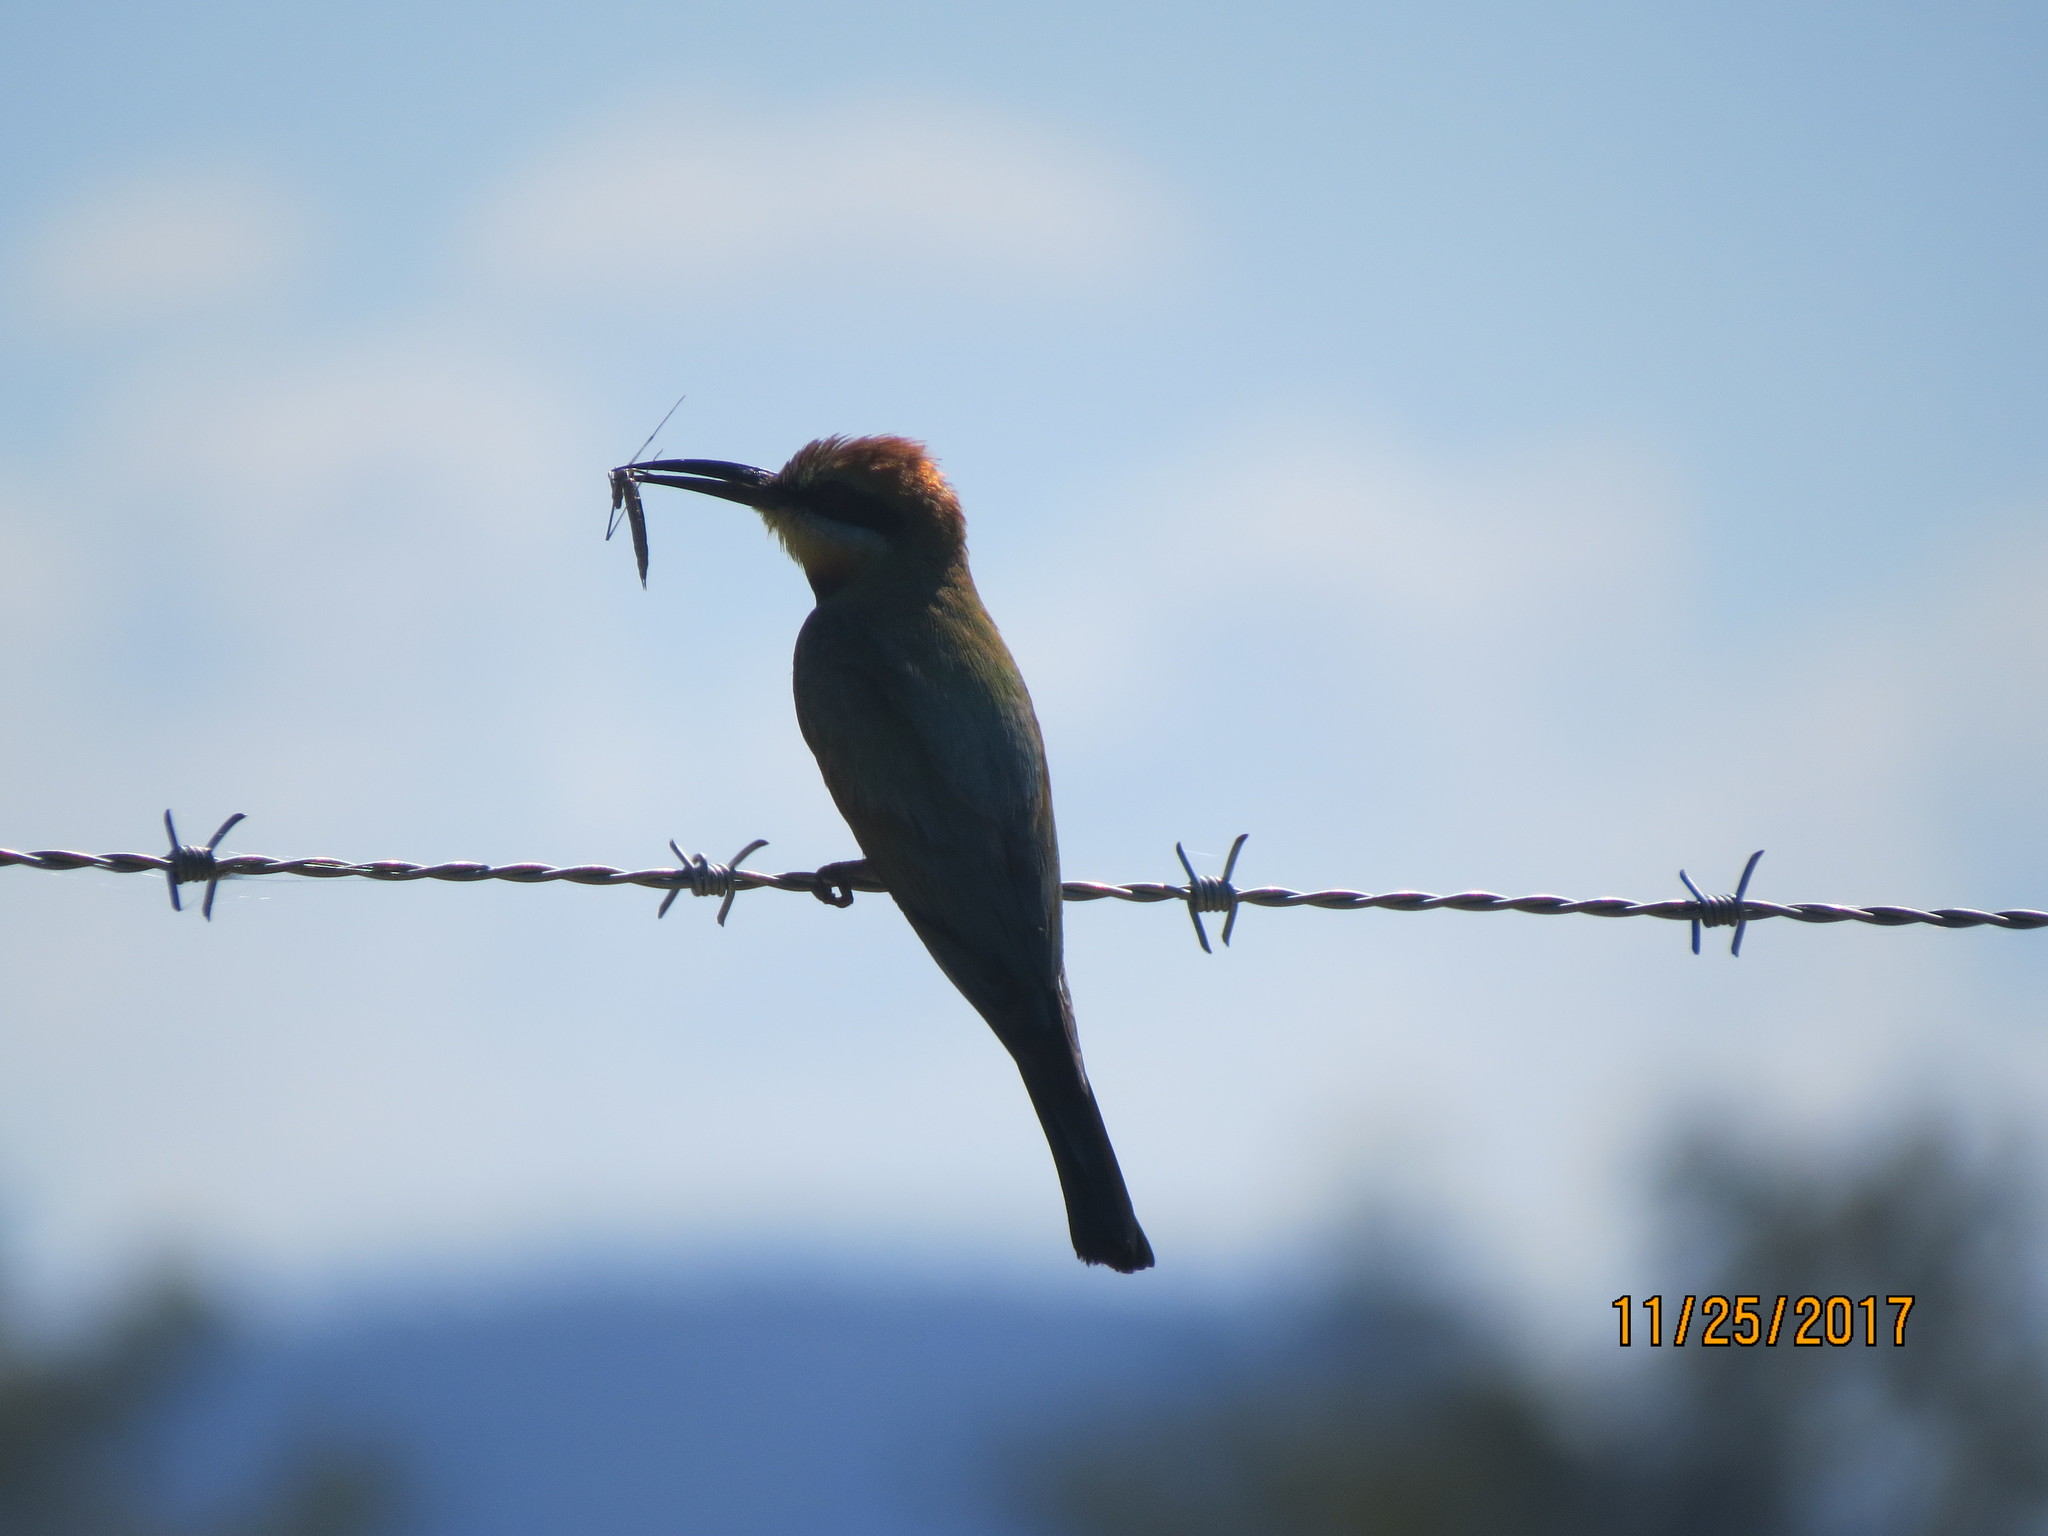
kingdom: Animalia
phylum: Chordata
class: Aves
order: Coraciiformes
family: Meropidae
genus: Merops
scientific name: Merops ornatus
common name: Rainbow bee-eater
